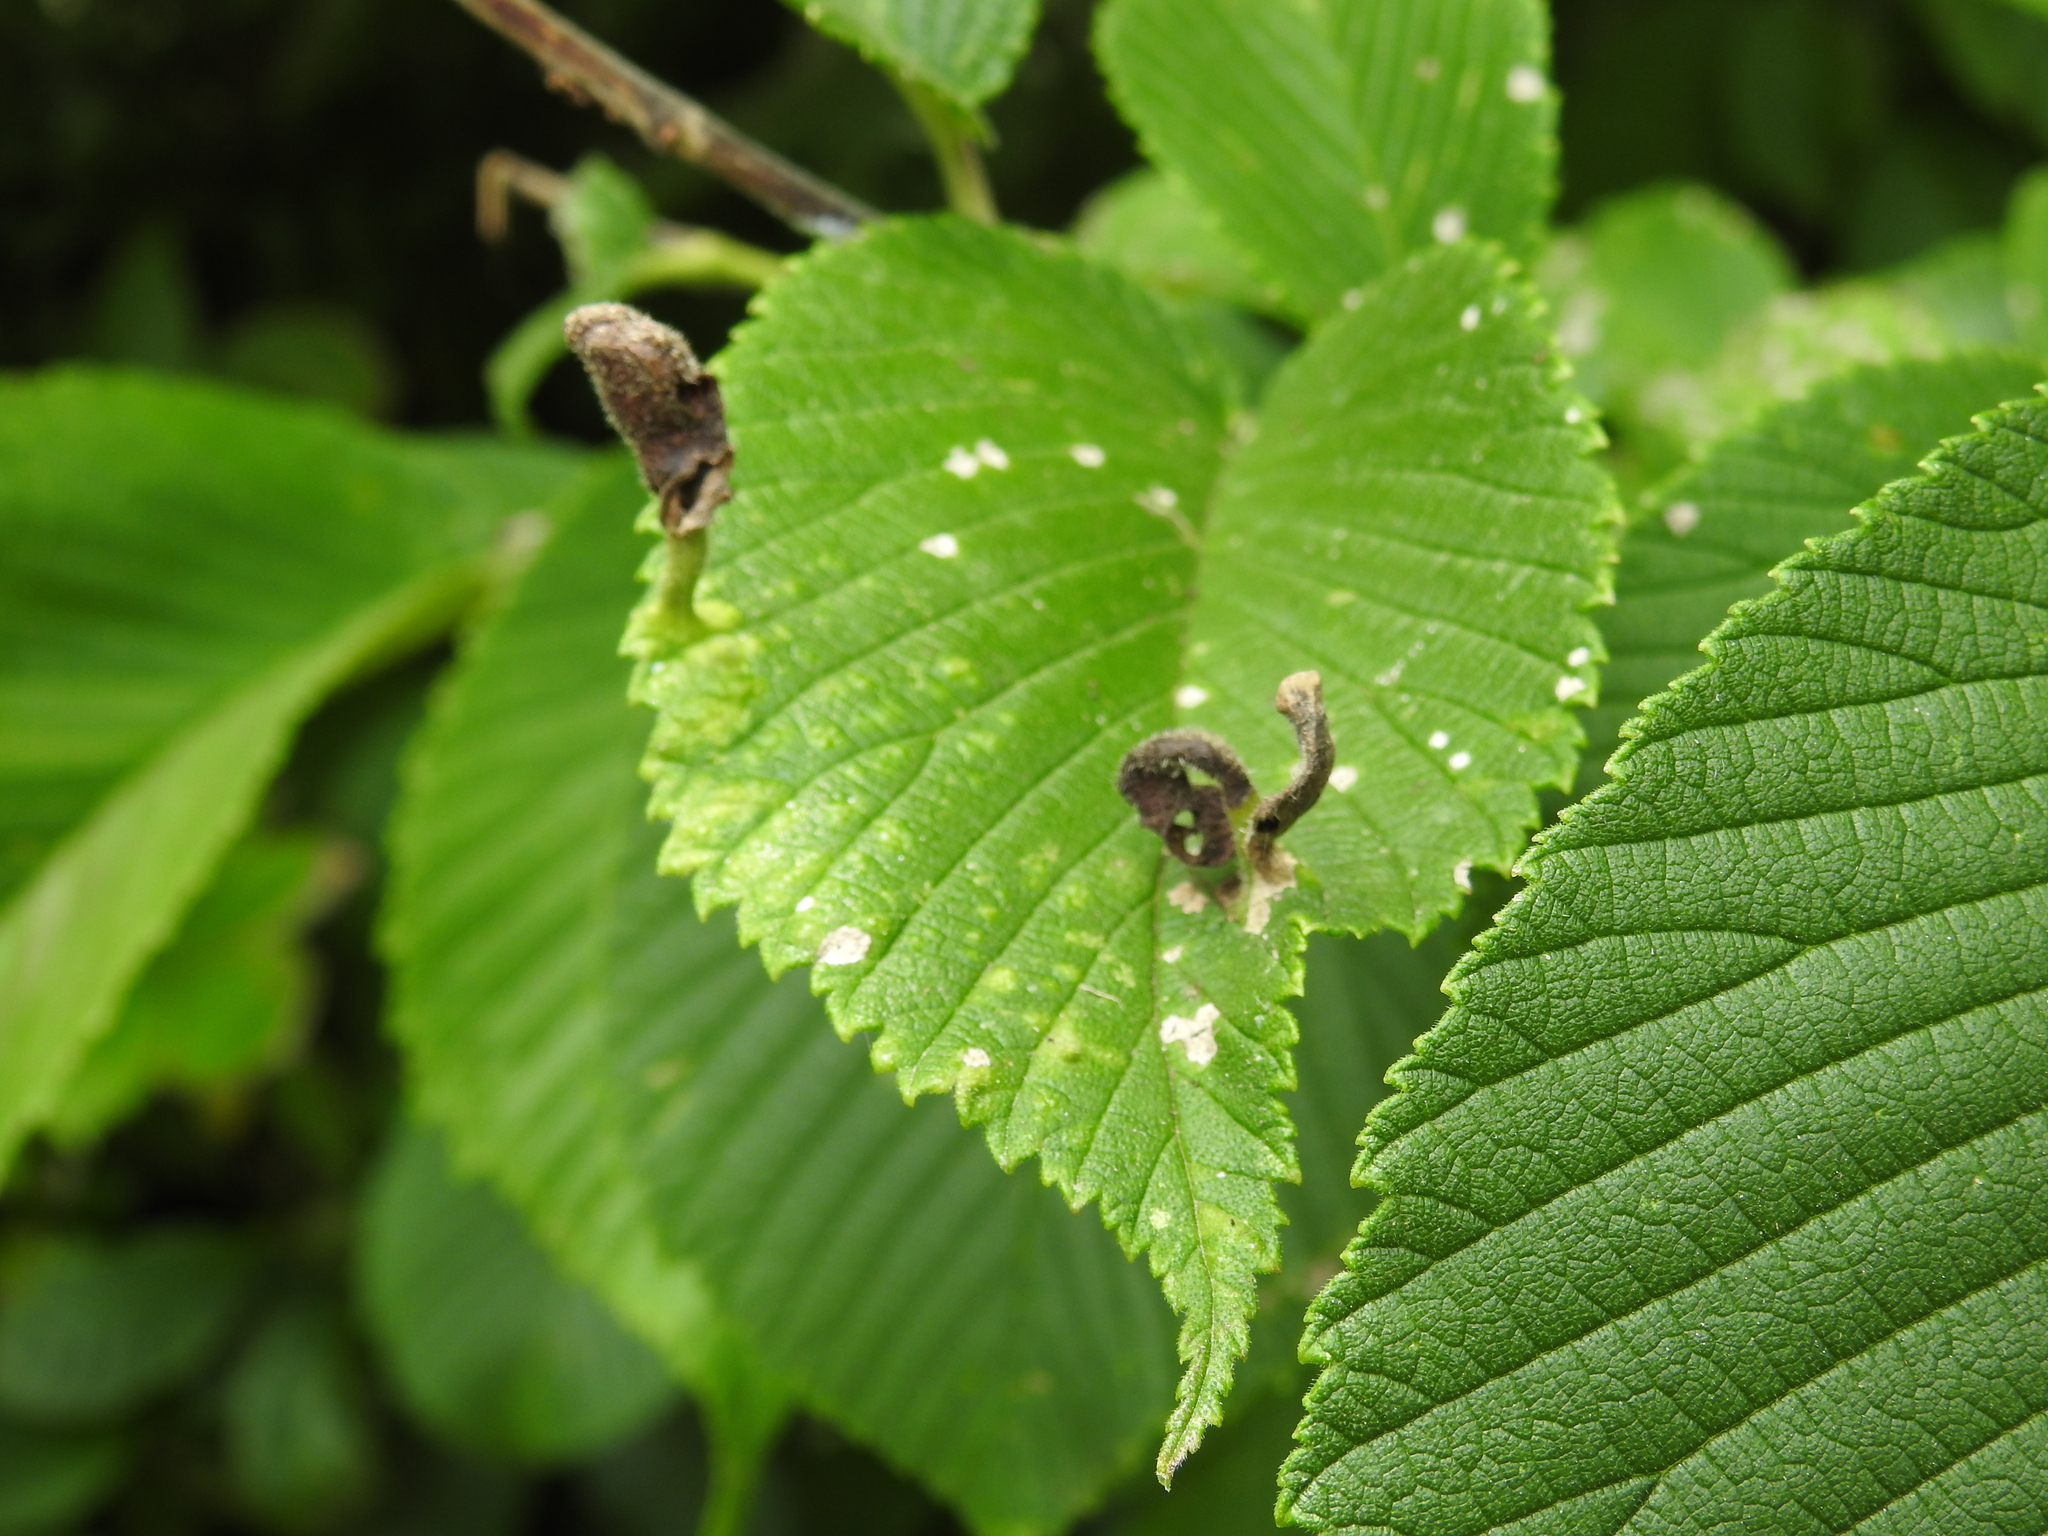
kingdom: Animalia
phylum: Arthropoda
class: Insecta
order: Hemiptera
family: Aphididae
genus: Tetraneura
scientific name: Tetraneura nigriabdominalis
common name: Aphid
